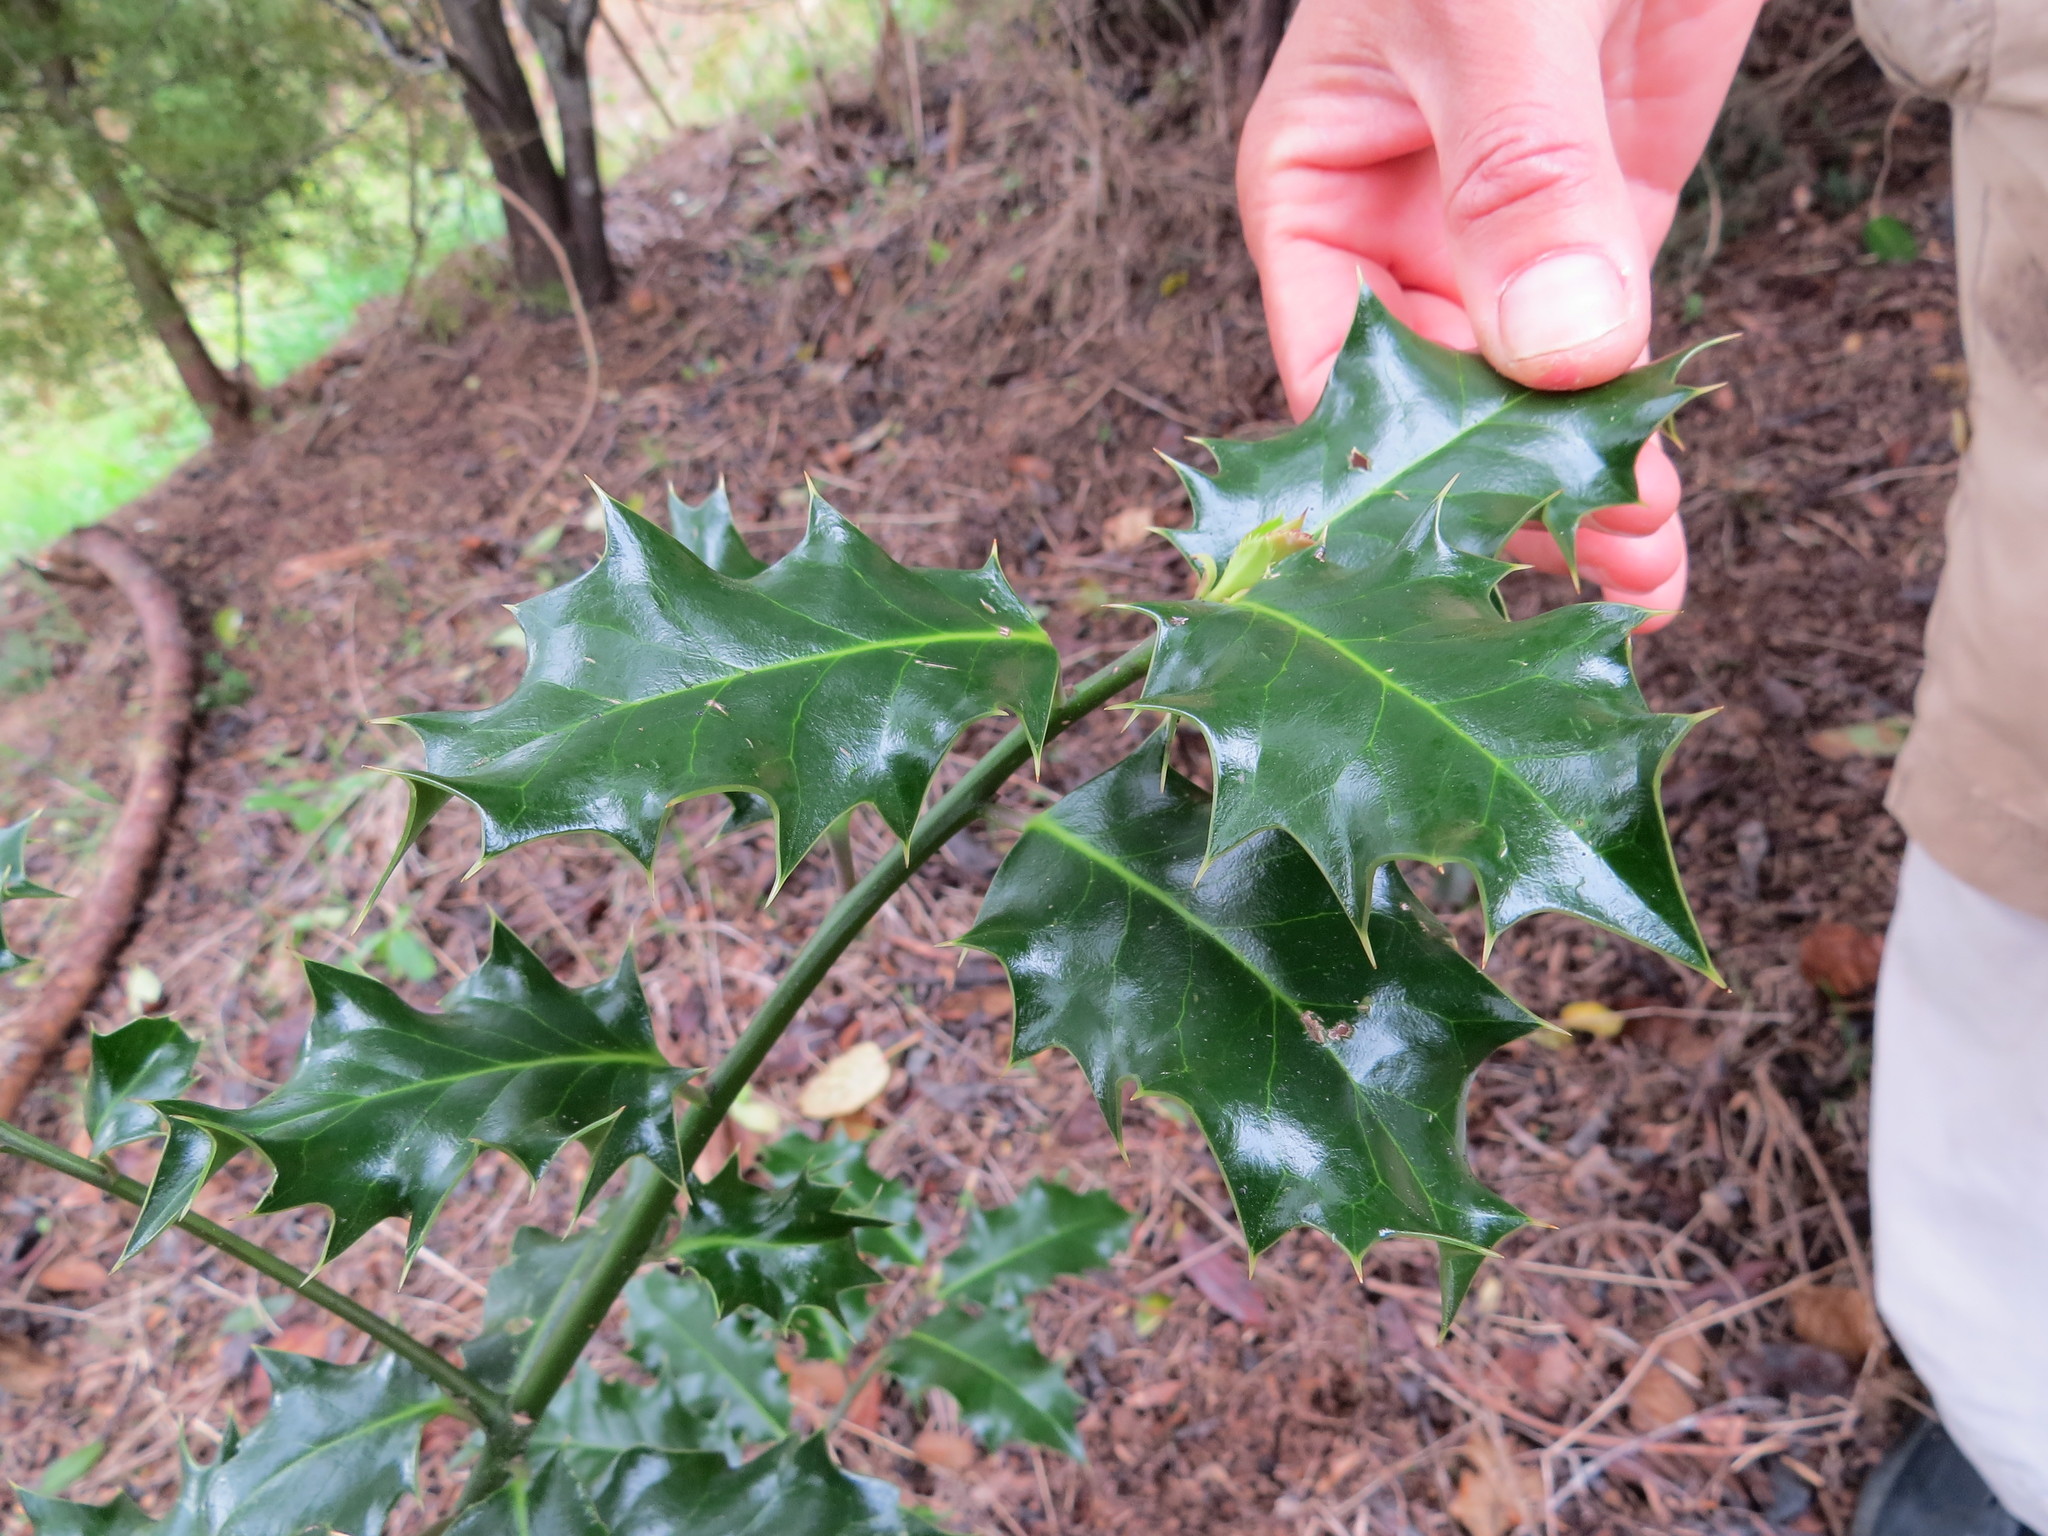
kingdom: Plantae
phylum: Tracheophyta
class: Magnoliopsida
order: Aquifoliales
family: Aquifoliaceae
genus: Ilex
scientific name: Ilex aquifolium
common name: English holly
